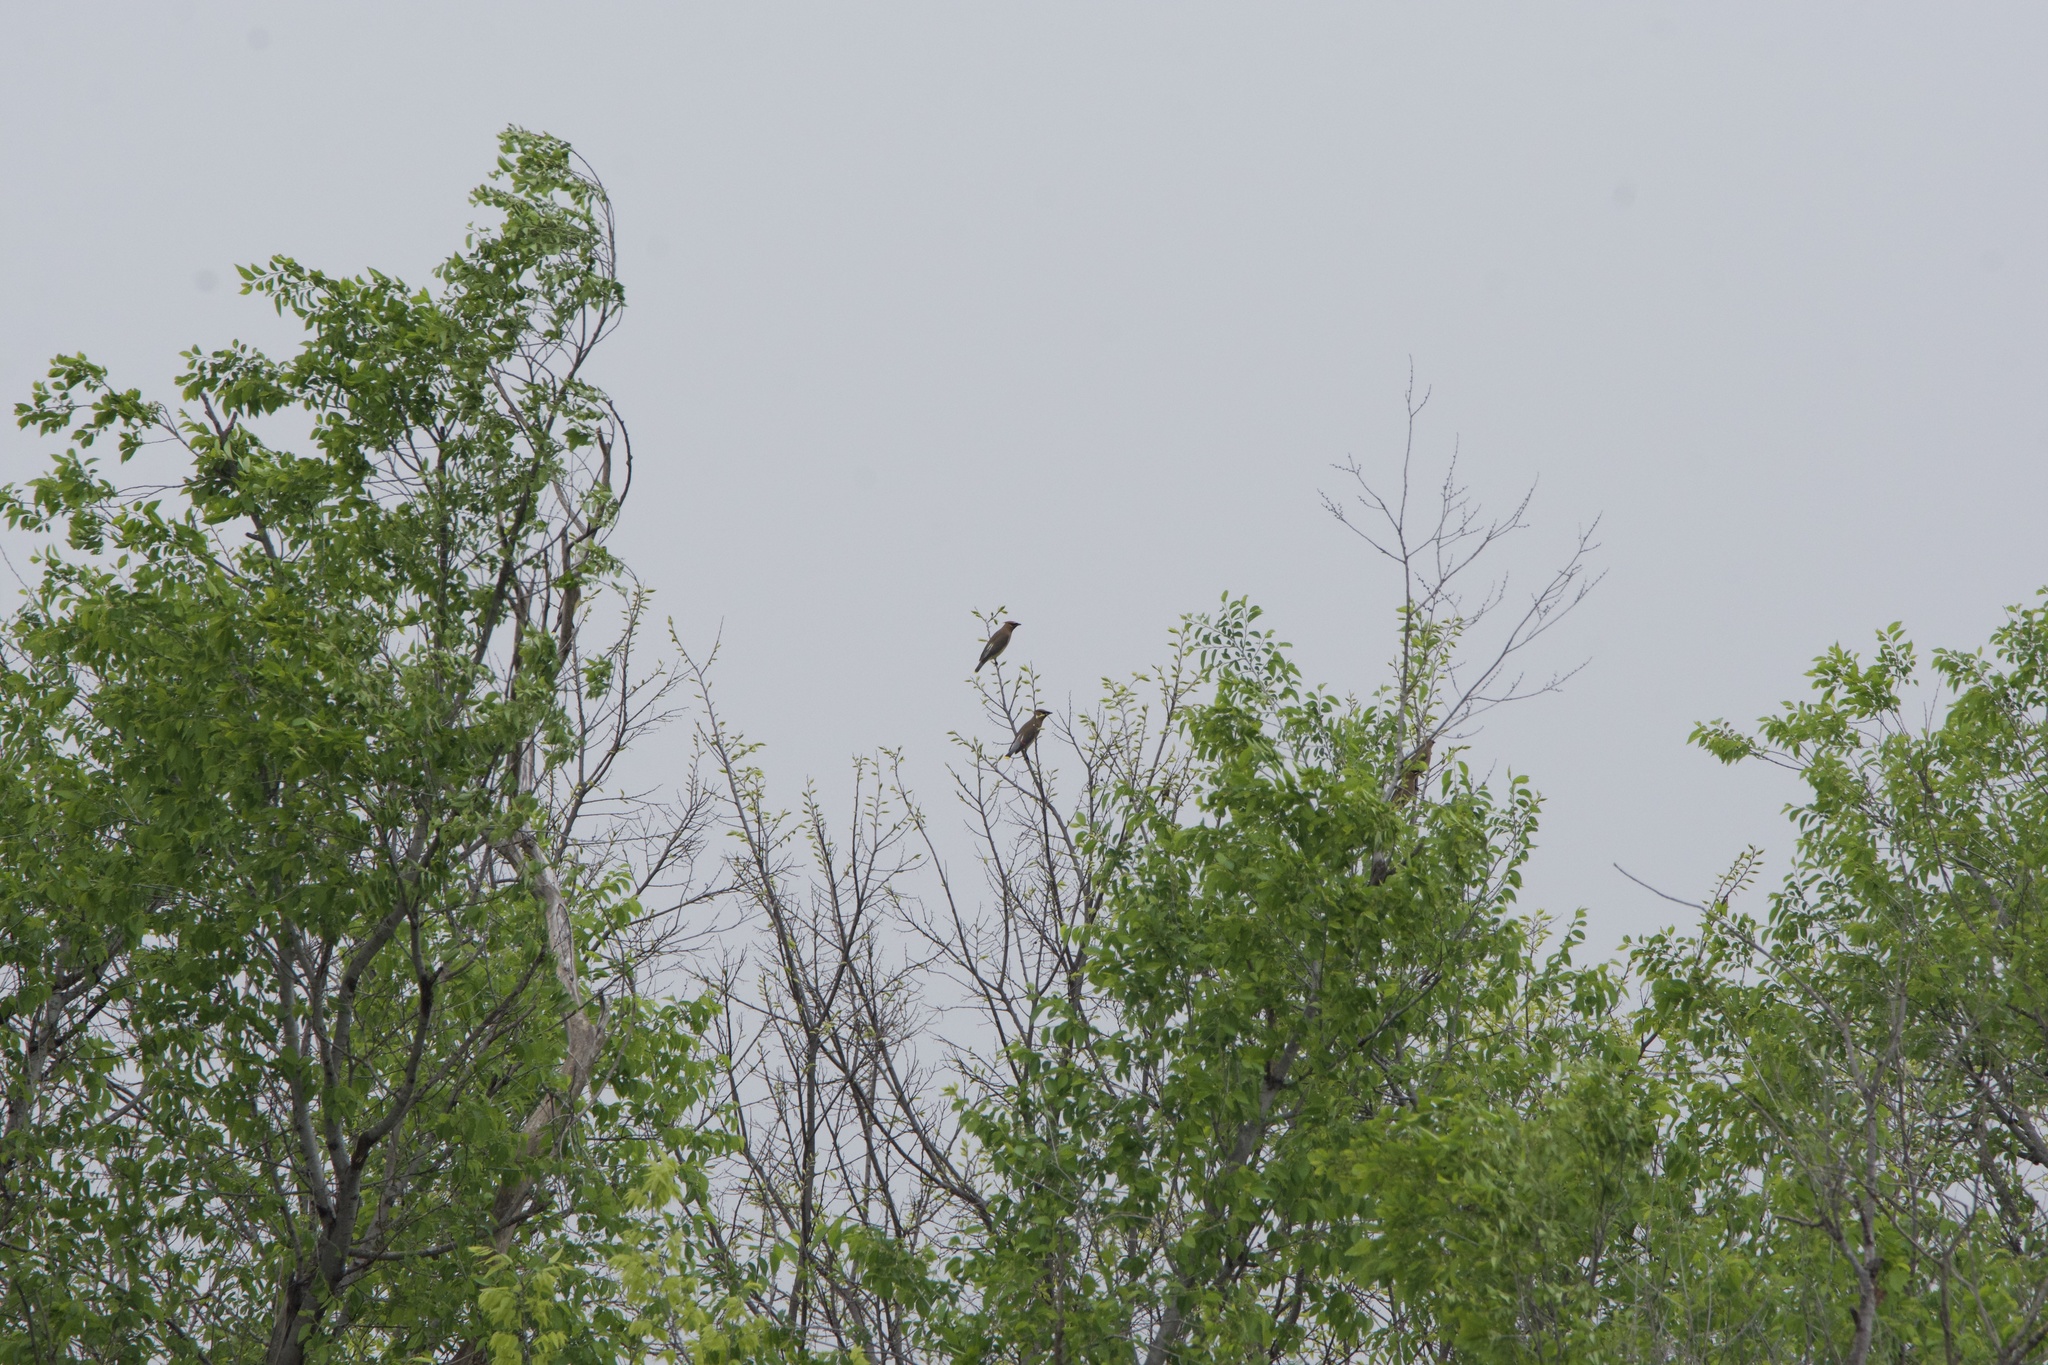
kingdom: Animalia
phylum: Chordata
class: Aves
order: Passeriformes
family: Bombycillidae
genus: Bombycilla
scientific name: Bombycilla cedrorum
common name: Cedar waxwing
